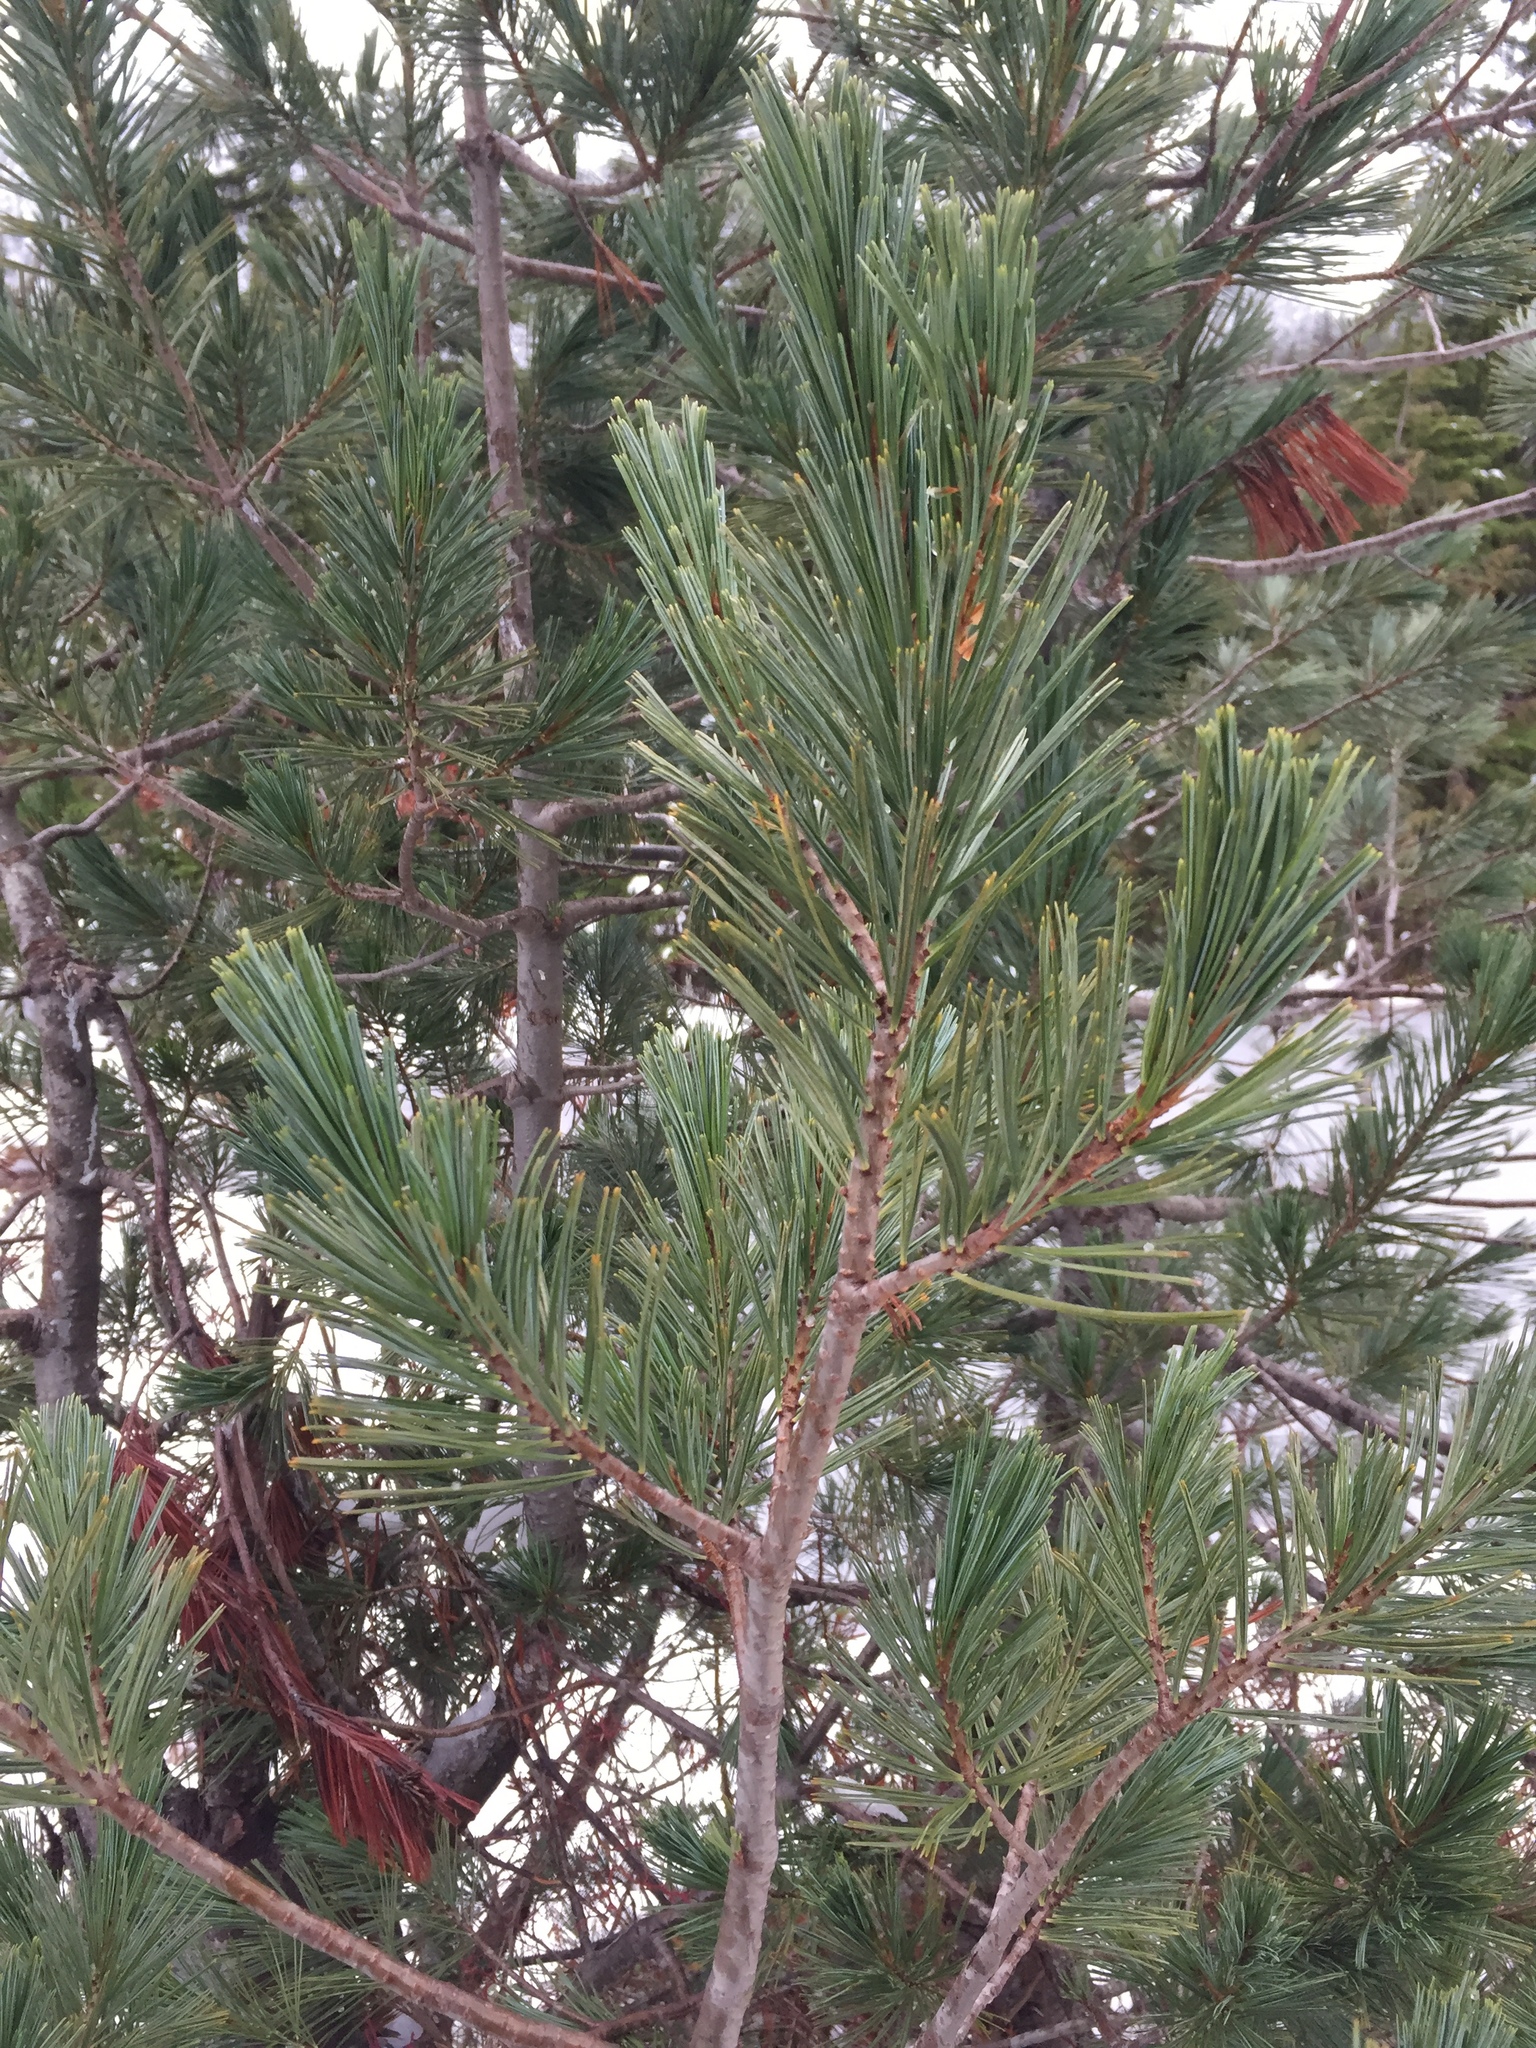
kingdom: Plantae
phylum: Tracheophyta
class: Pinopsida
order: Pinales
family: Pinaceae
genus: Pinus
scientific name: Pinus monticola
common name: Western white pine
